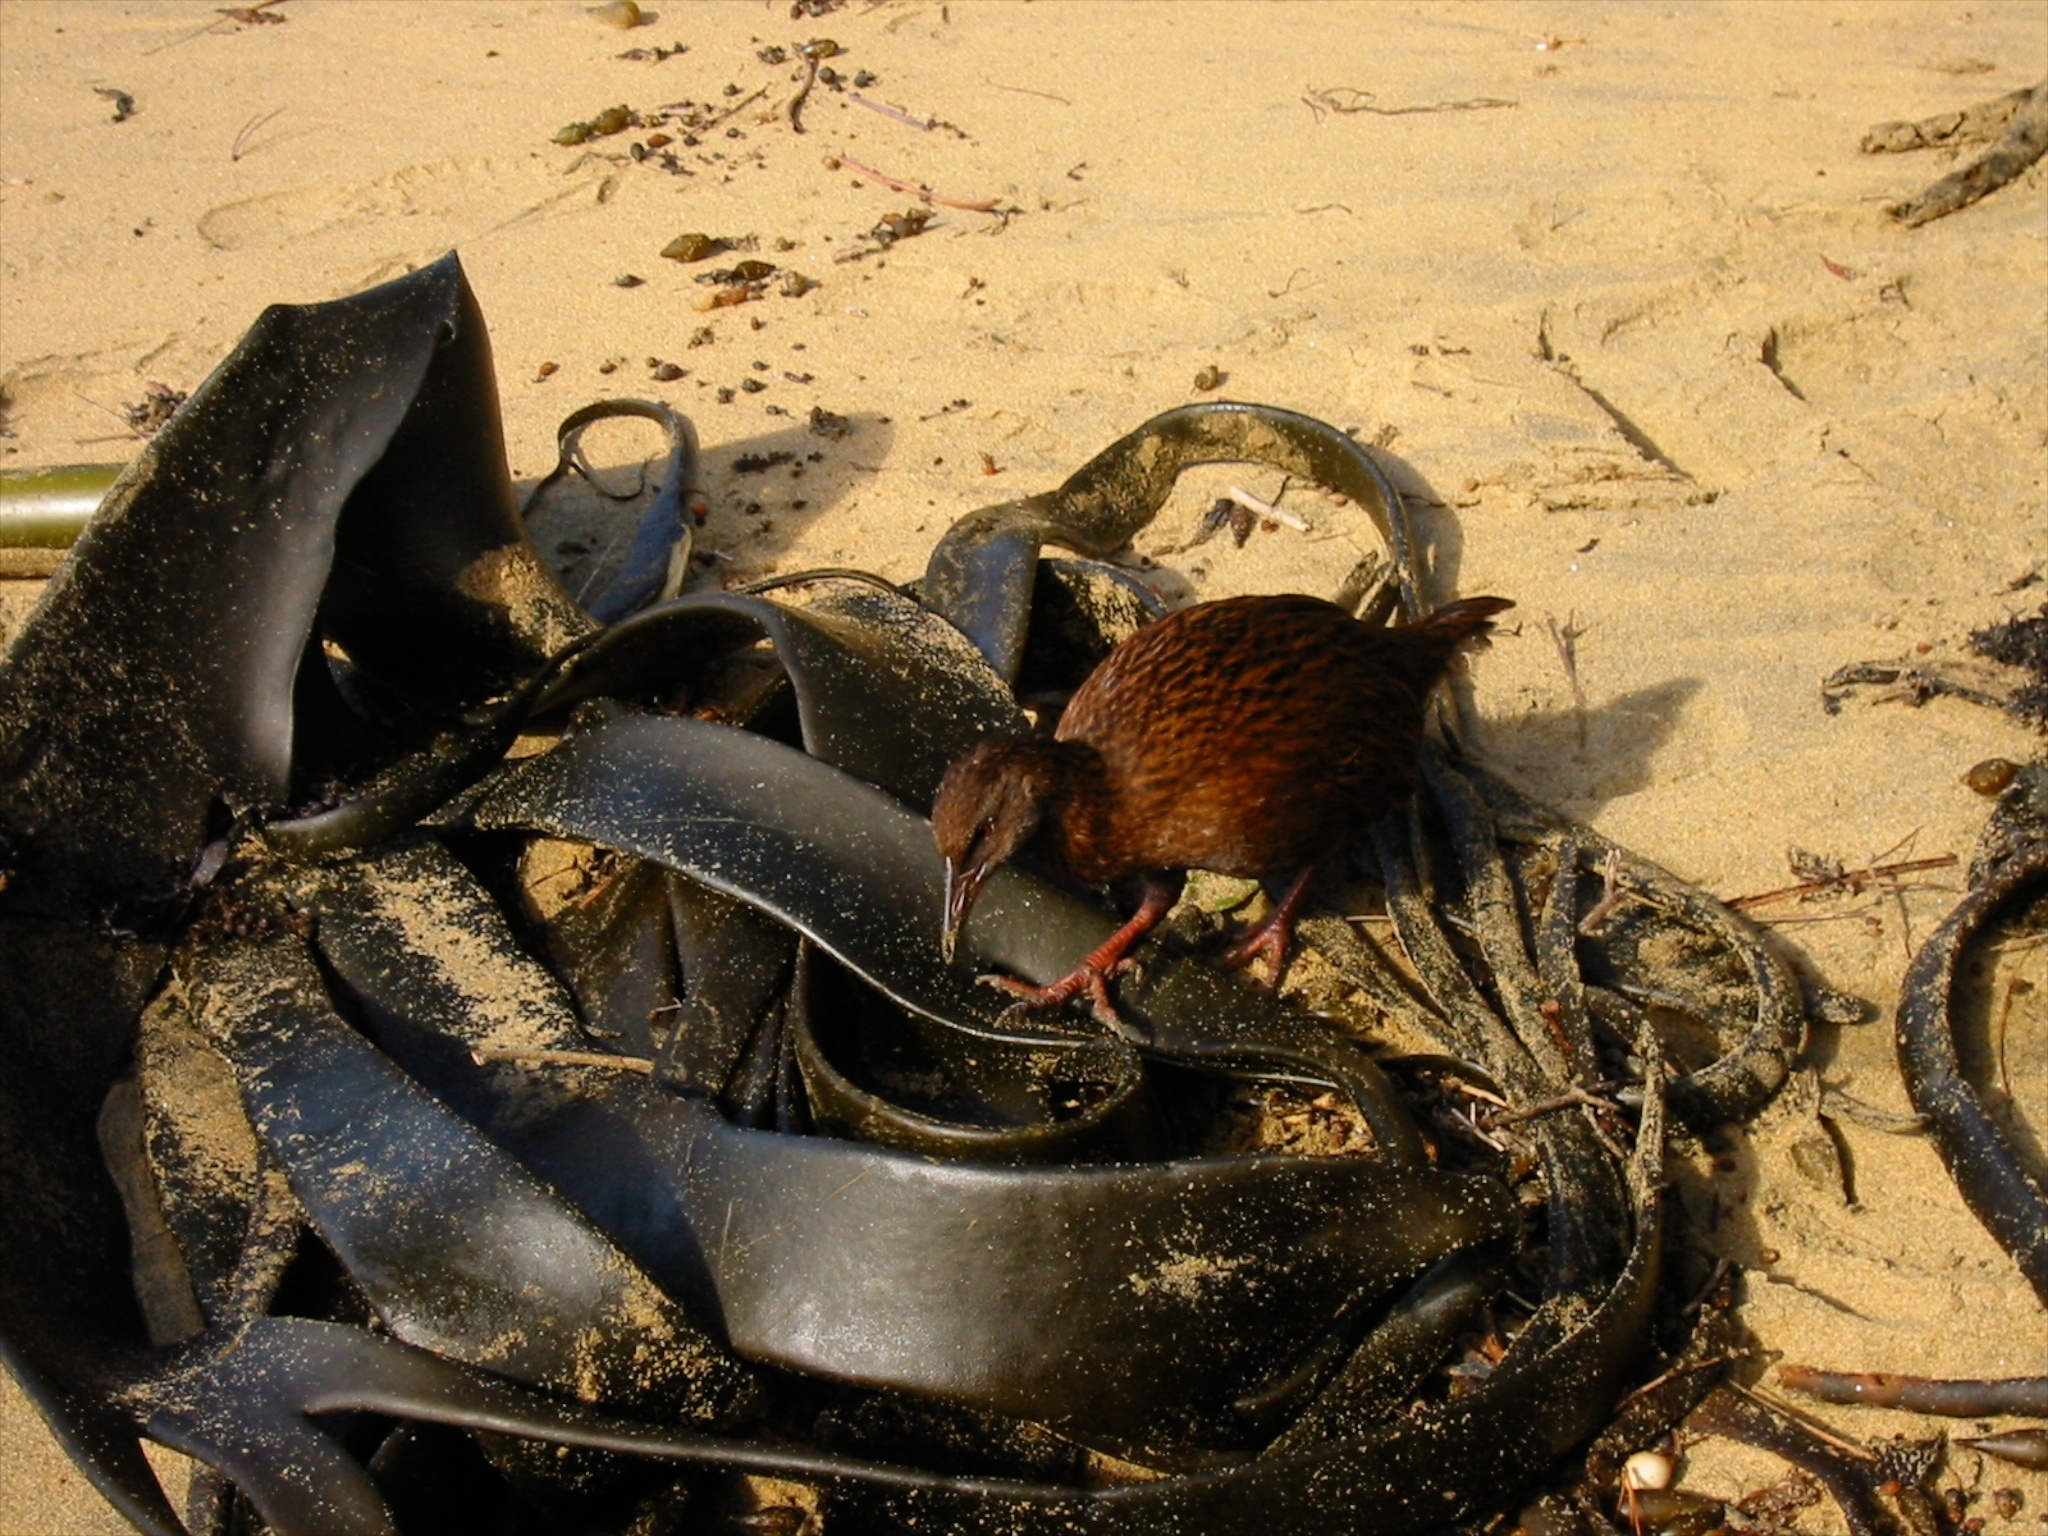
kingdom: Animalia
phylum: Chordata
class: Aves
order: Gruiformes
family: Rallidae
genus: Gallirallus
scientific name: Gallirallus australis
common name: Weka
